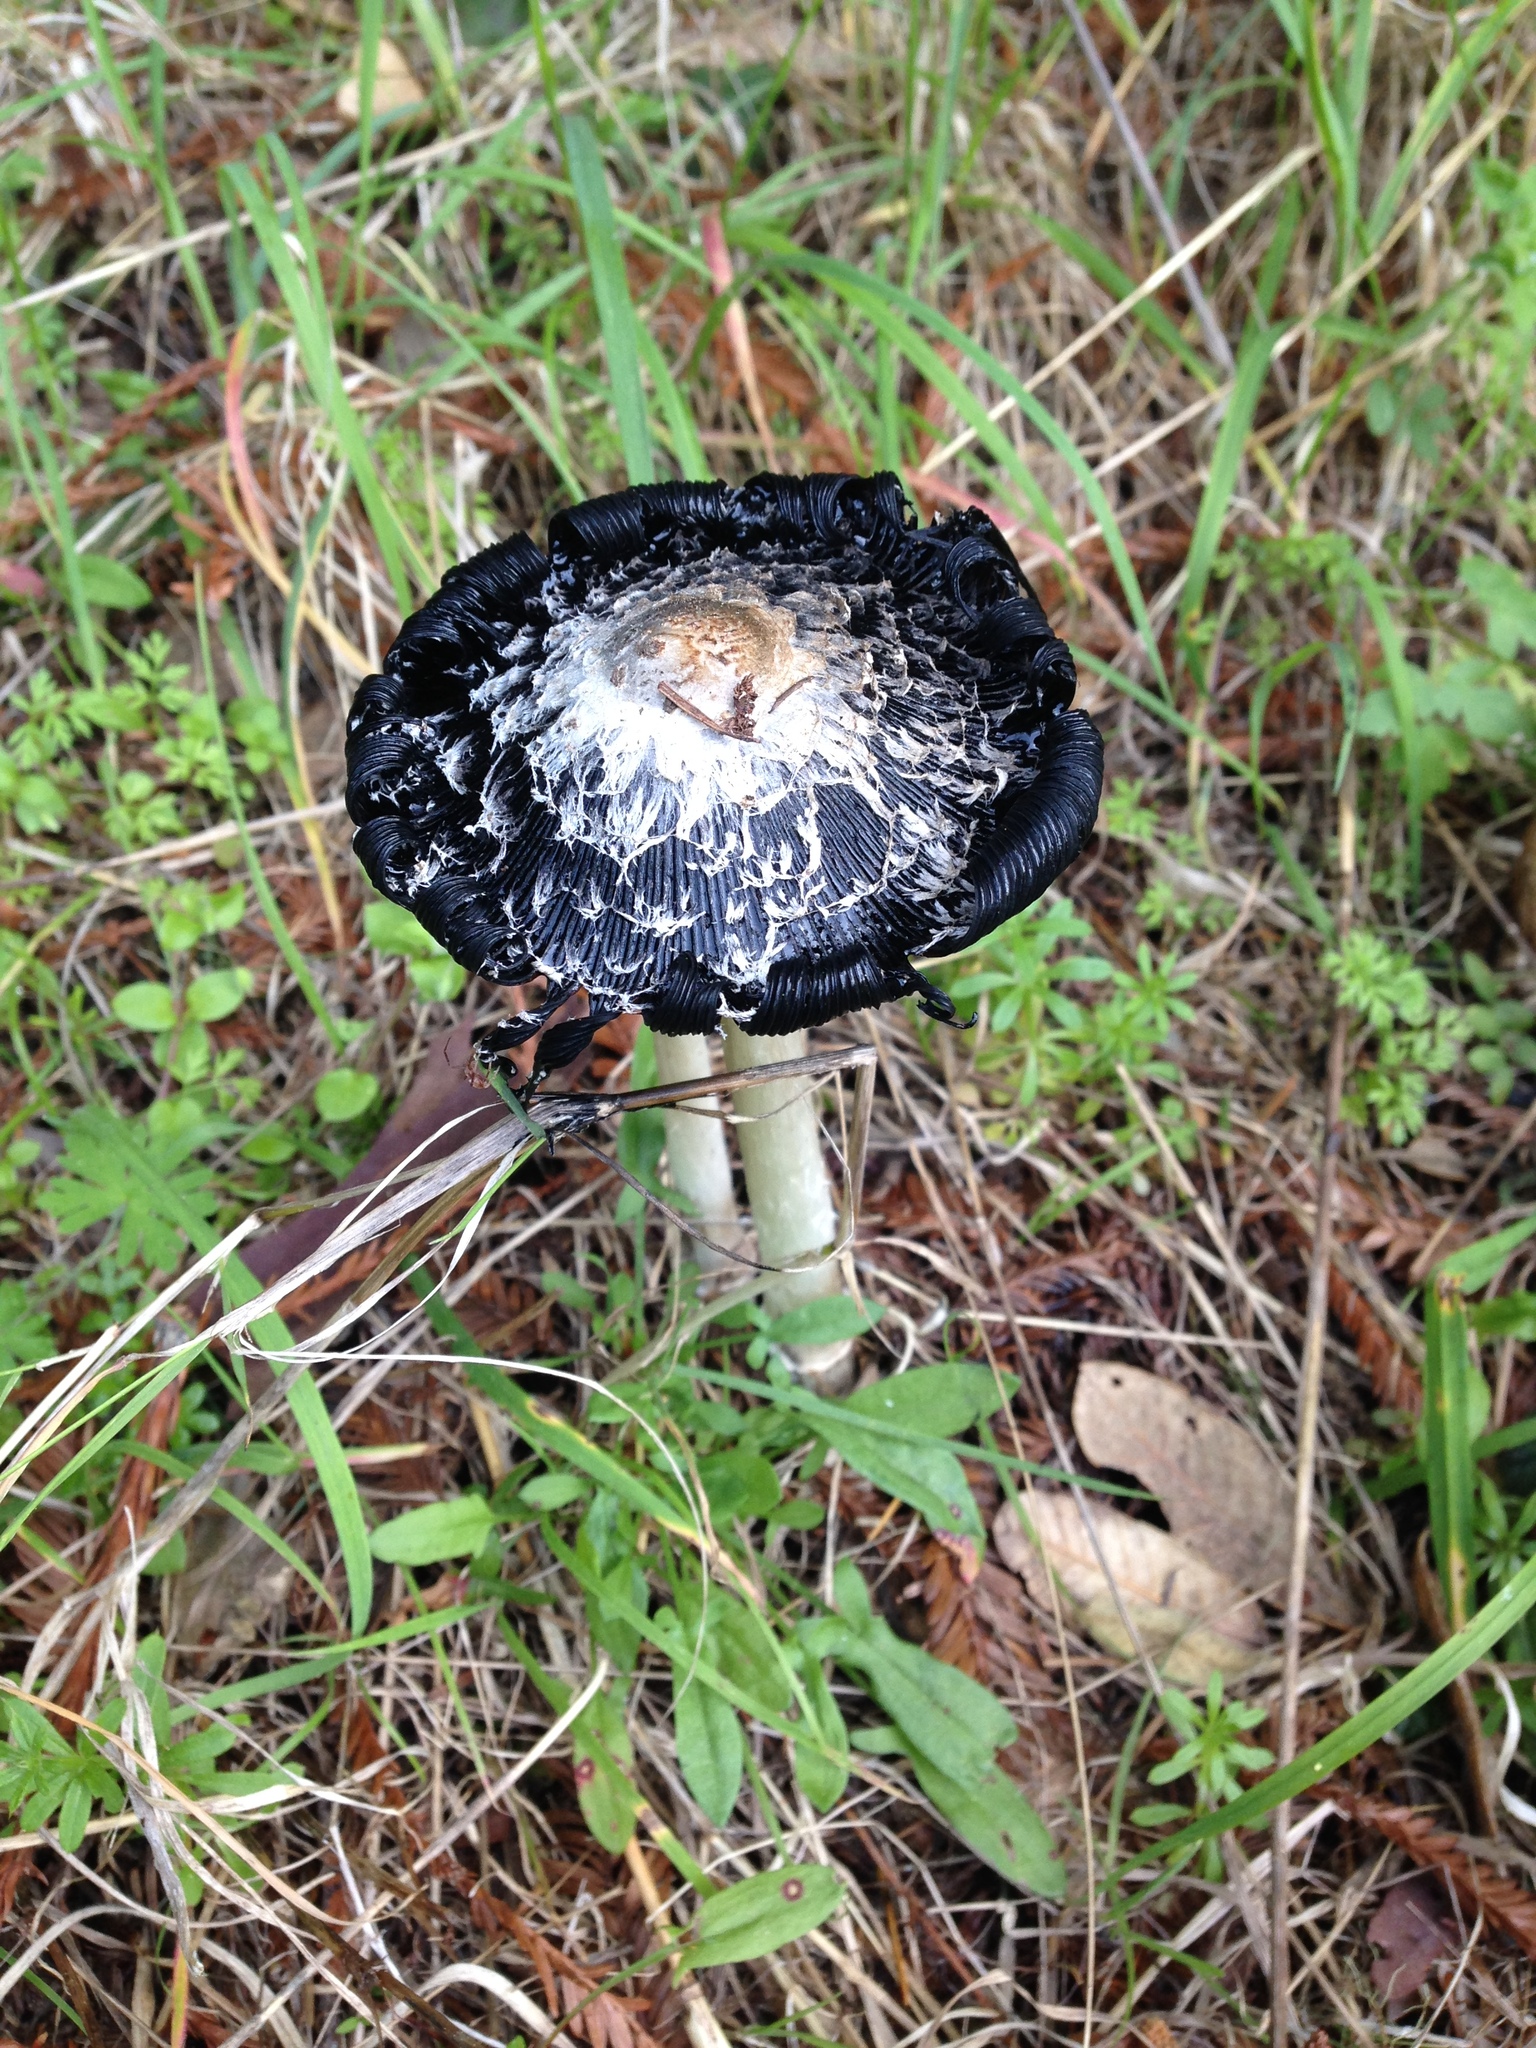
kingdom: Fungi
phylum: Basidiomycota
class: Agaricomycetes
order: Agaricales
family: Agaricaceae
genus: Coprinus
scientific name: Coprinus comatus
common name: Lawyer's wig
